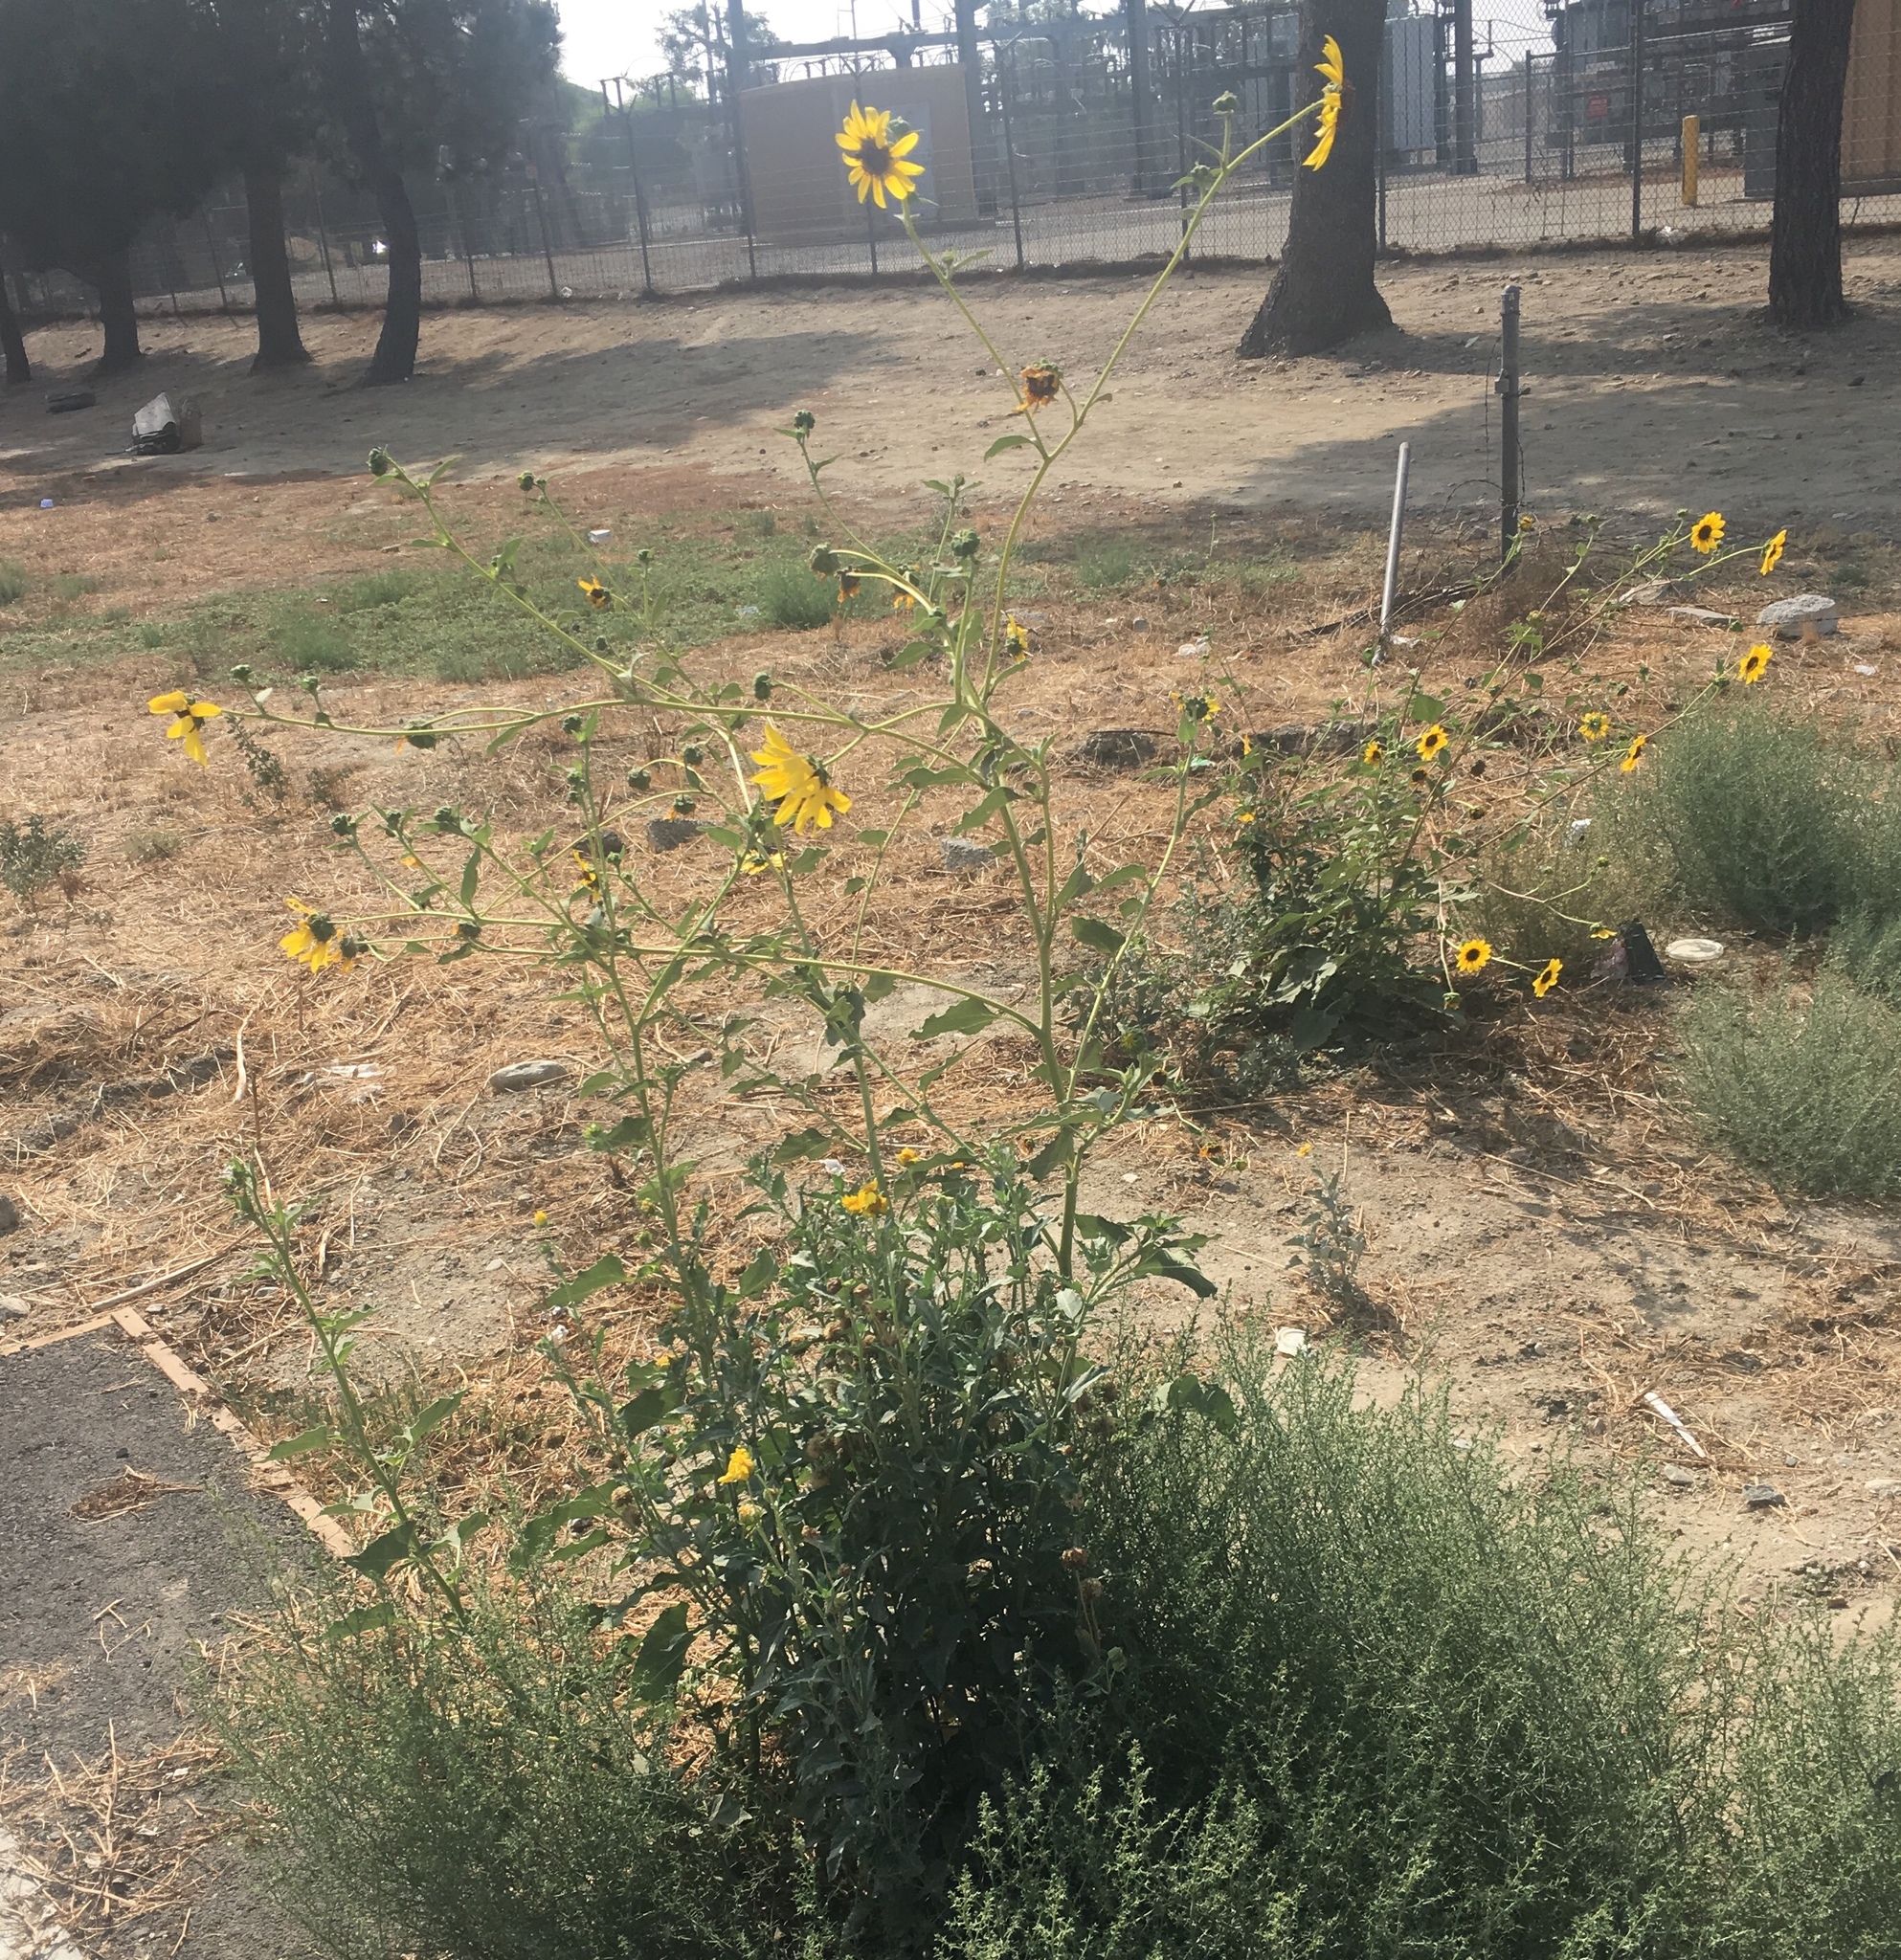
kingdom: Plantae
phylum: Tracheophyta
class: Magnoliopsida
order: Asterales
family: Asteraceae
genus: Helianthus
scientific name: Helianthus annuus
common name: Sunflower
